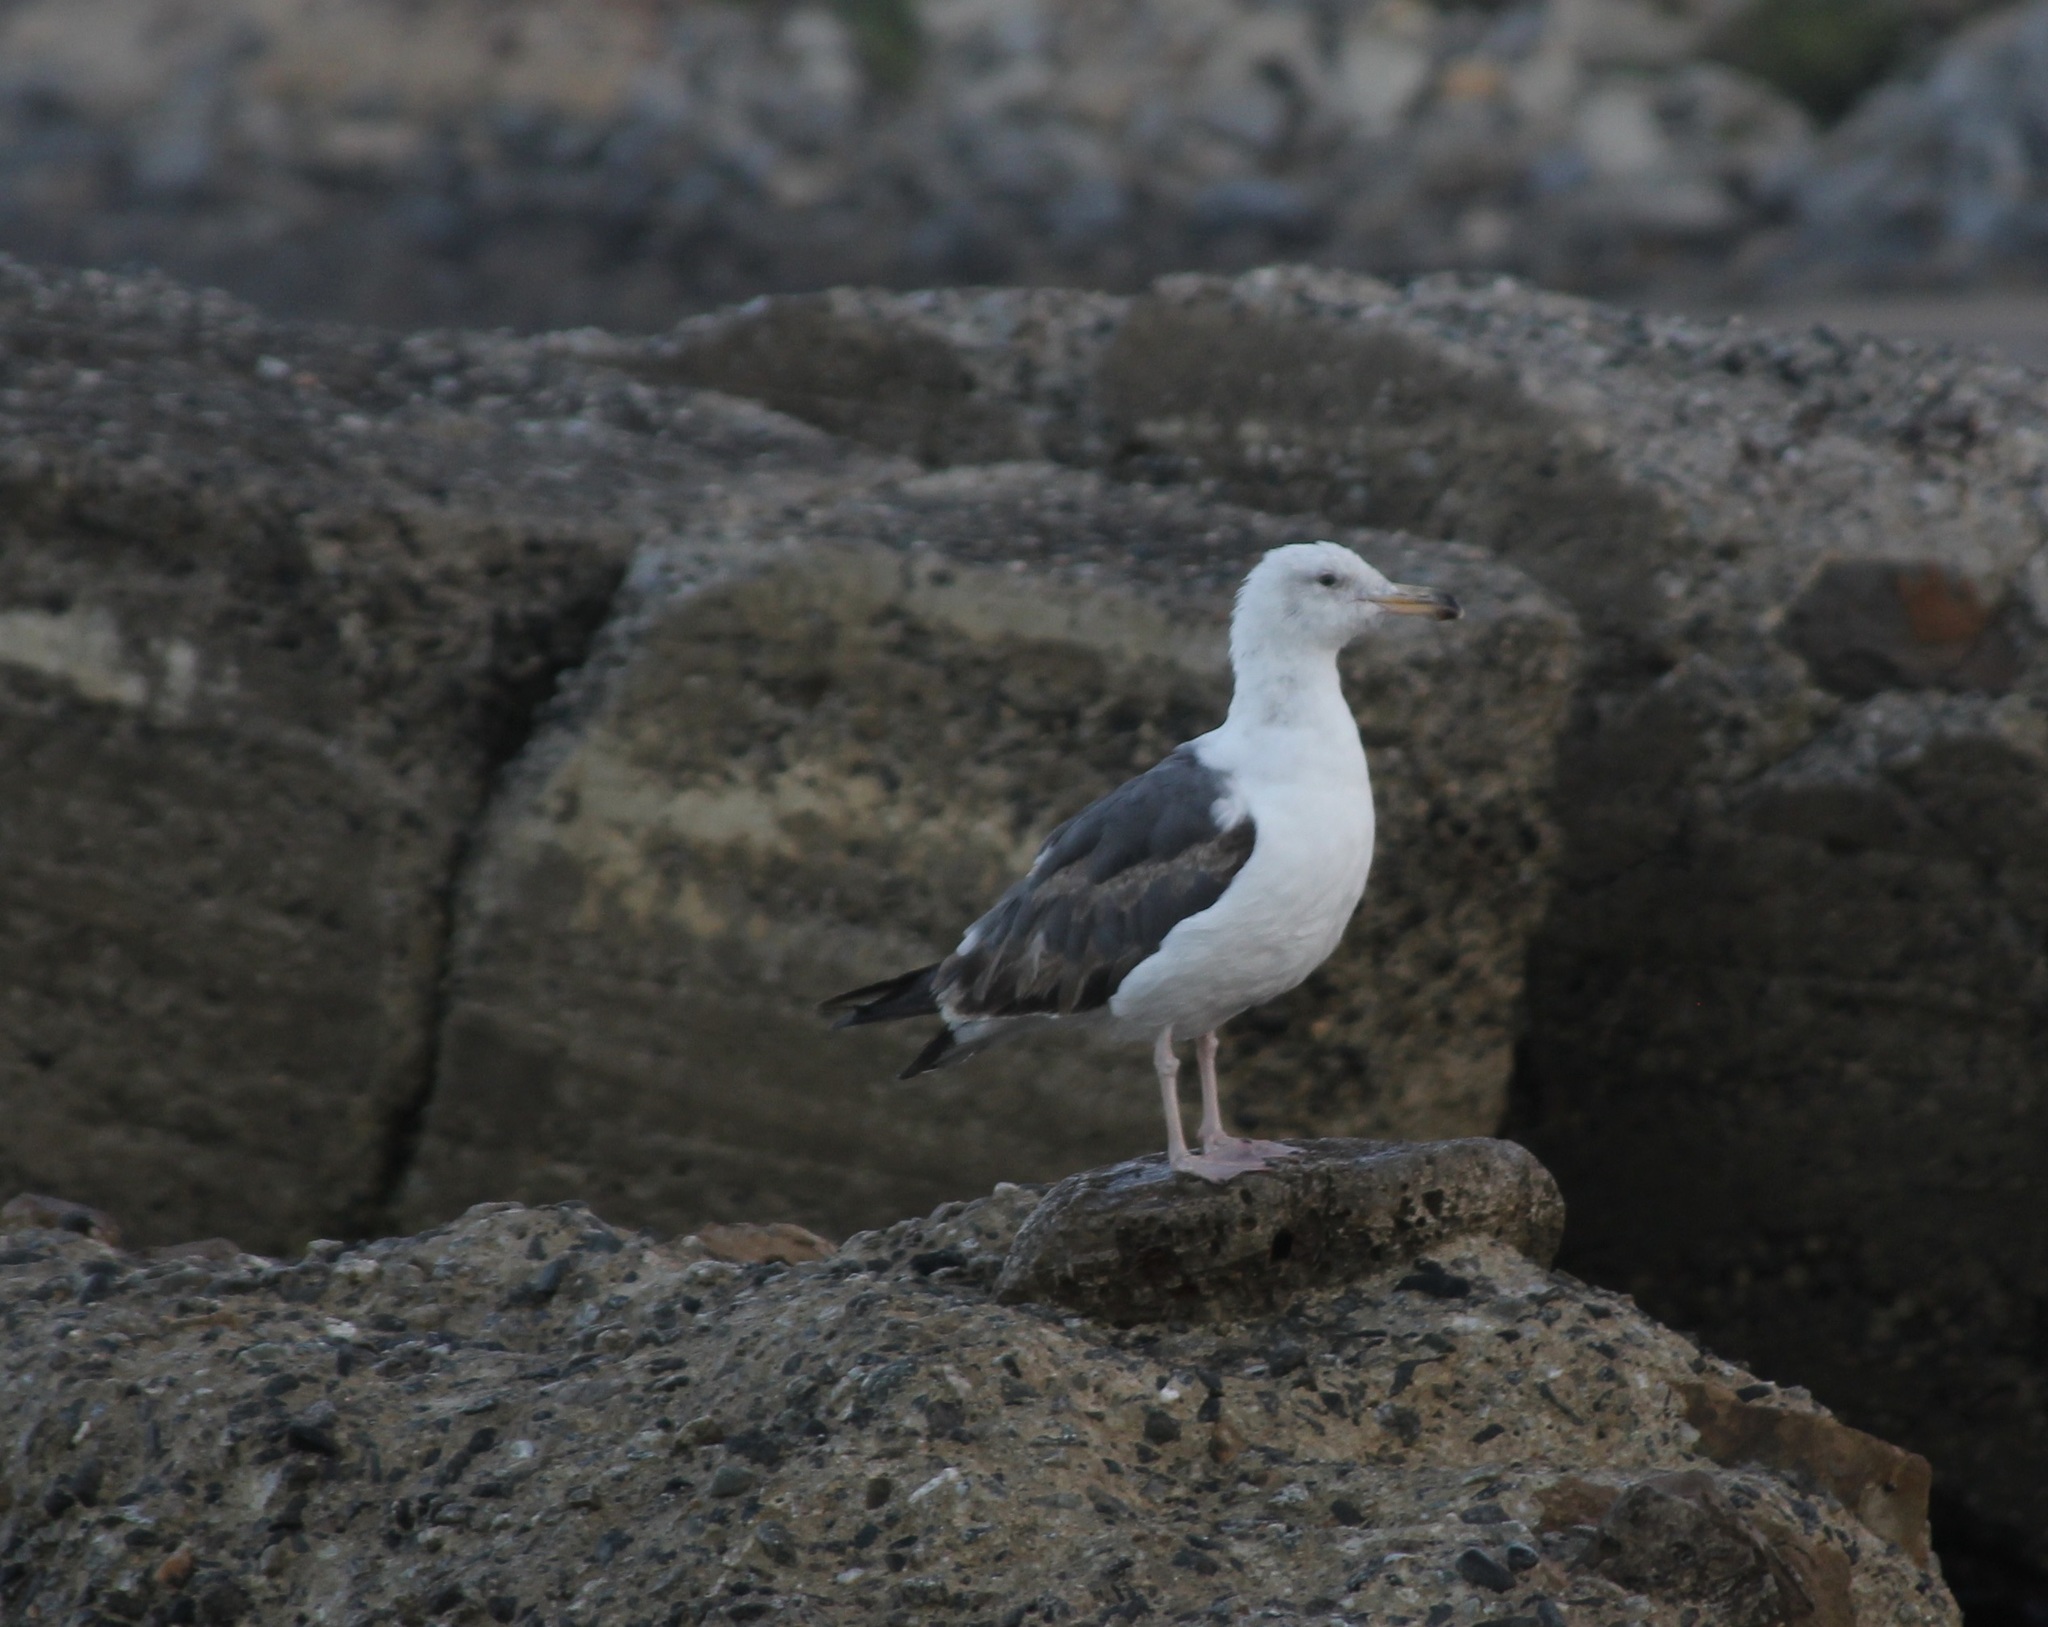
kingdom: Animalia
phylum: Chordata
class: Aves
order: Charadriiformes
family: Laridae
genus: Larus
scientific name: Larus occidentalis
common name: Western gull
